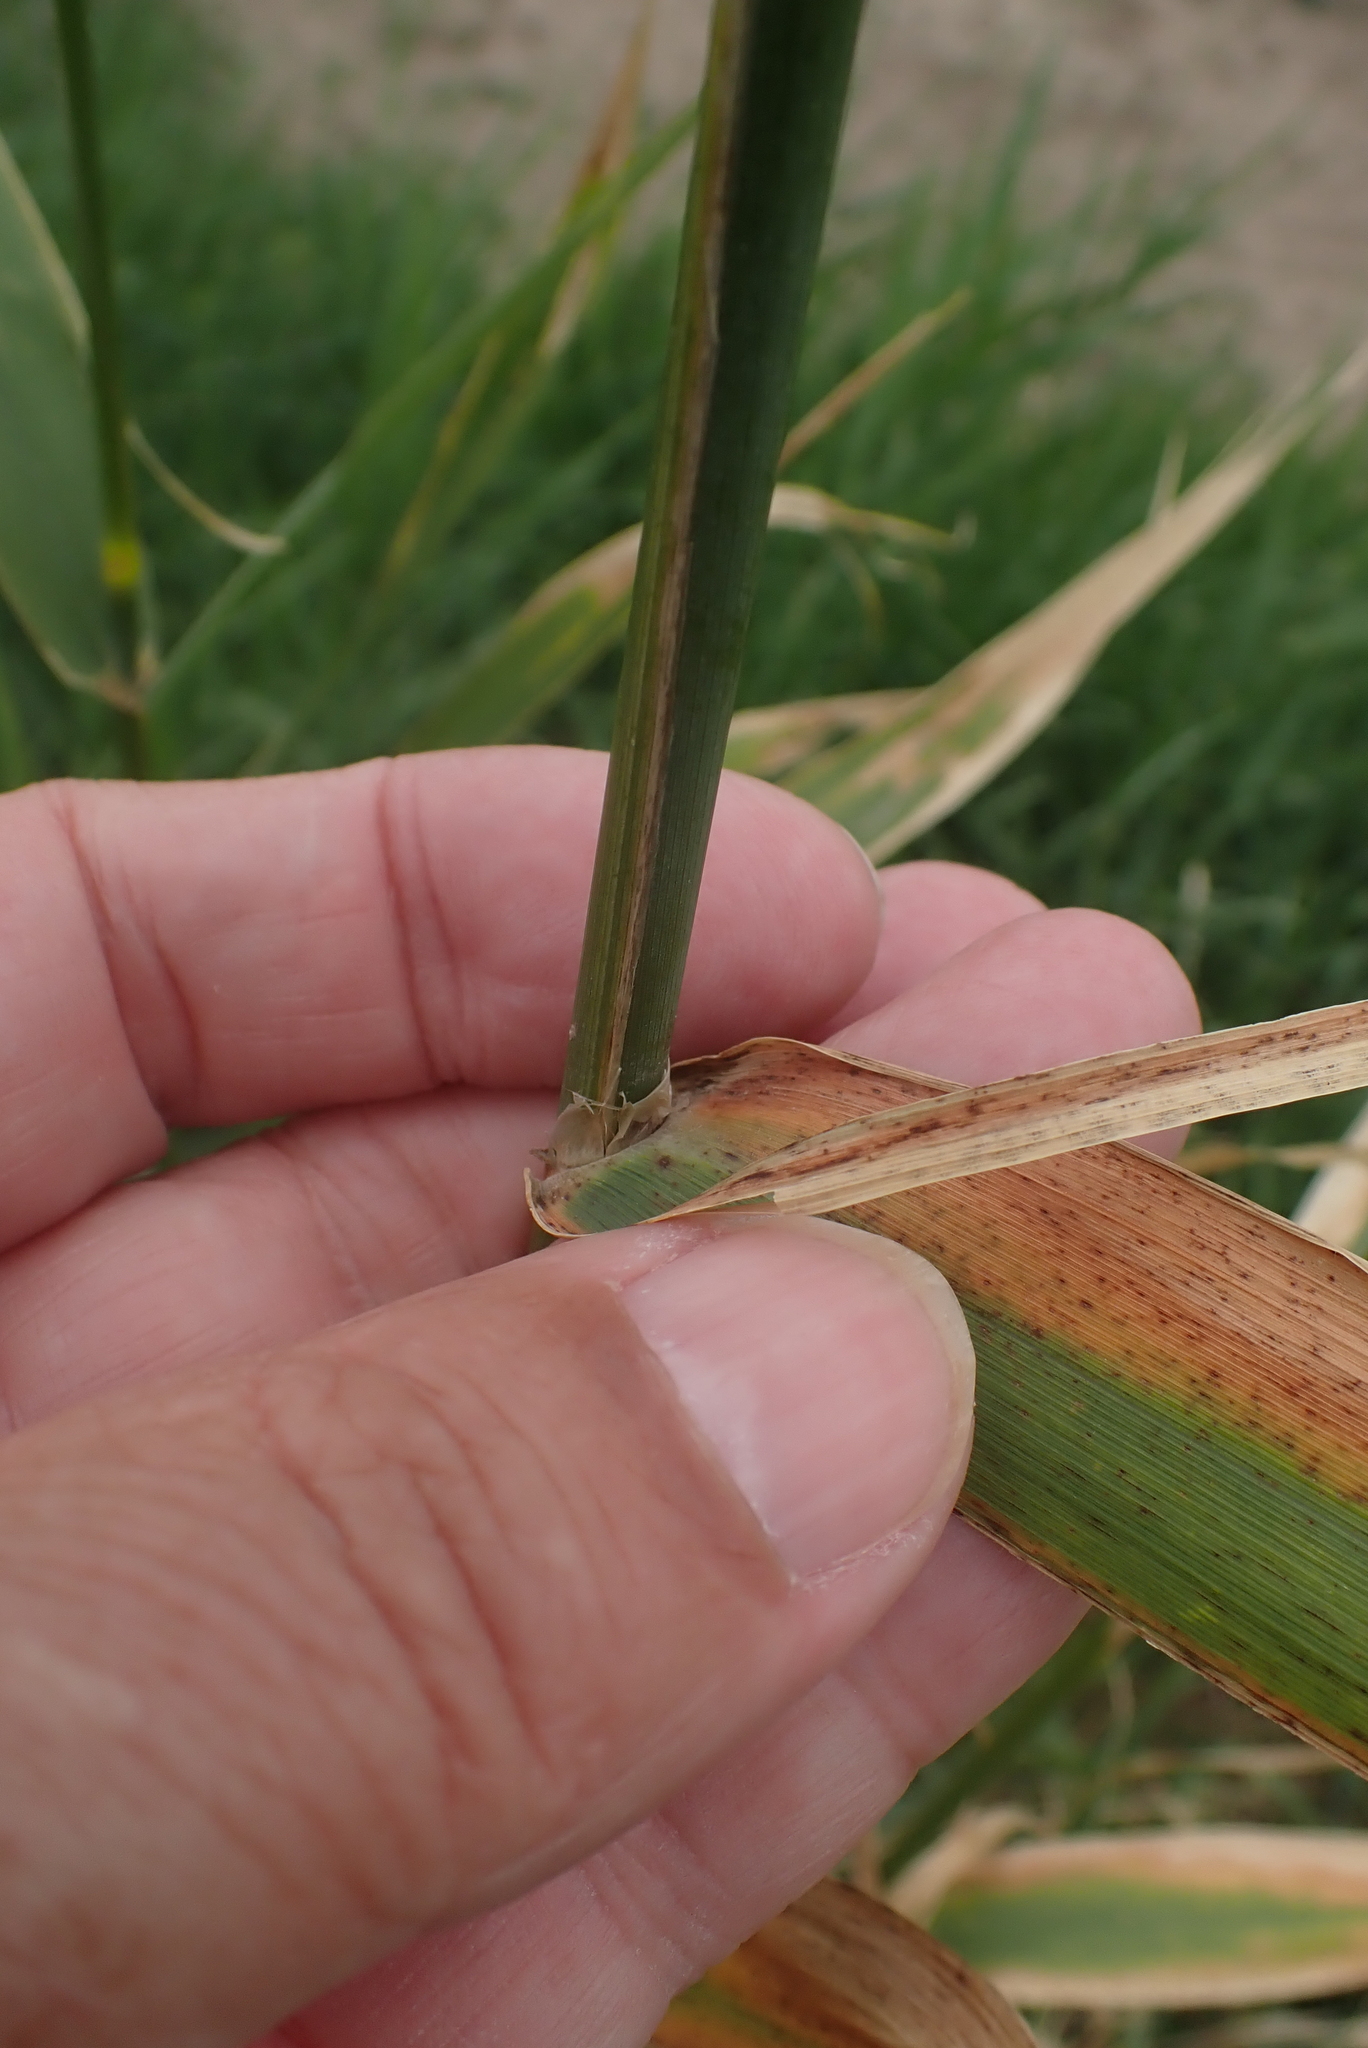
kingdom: Plantae
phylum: Tracheophyta
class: Liliopsida
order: Poales
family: Poaceae
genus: Phalaris
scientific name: Phalaris arundinacea
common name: Reed canary-grass
